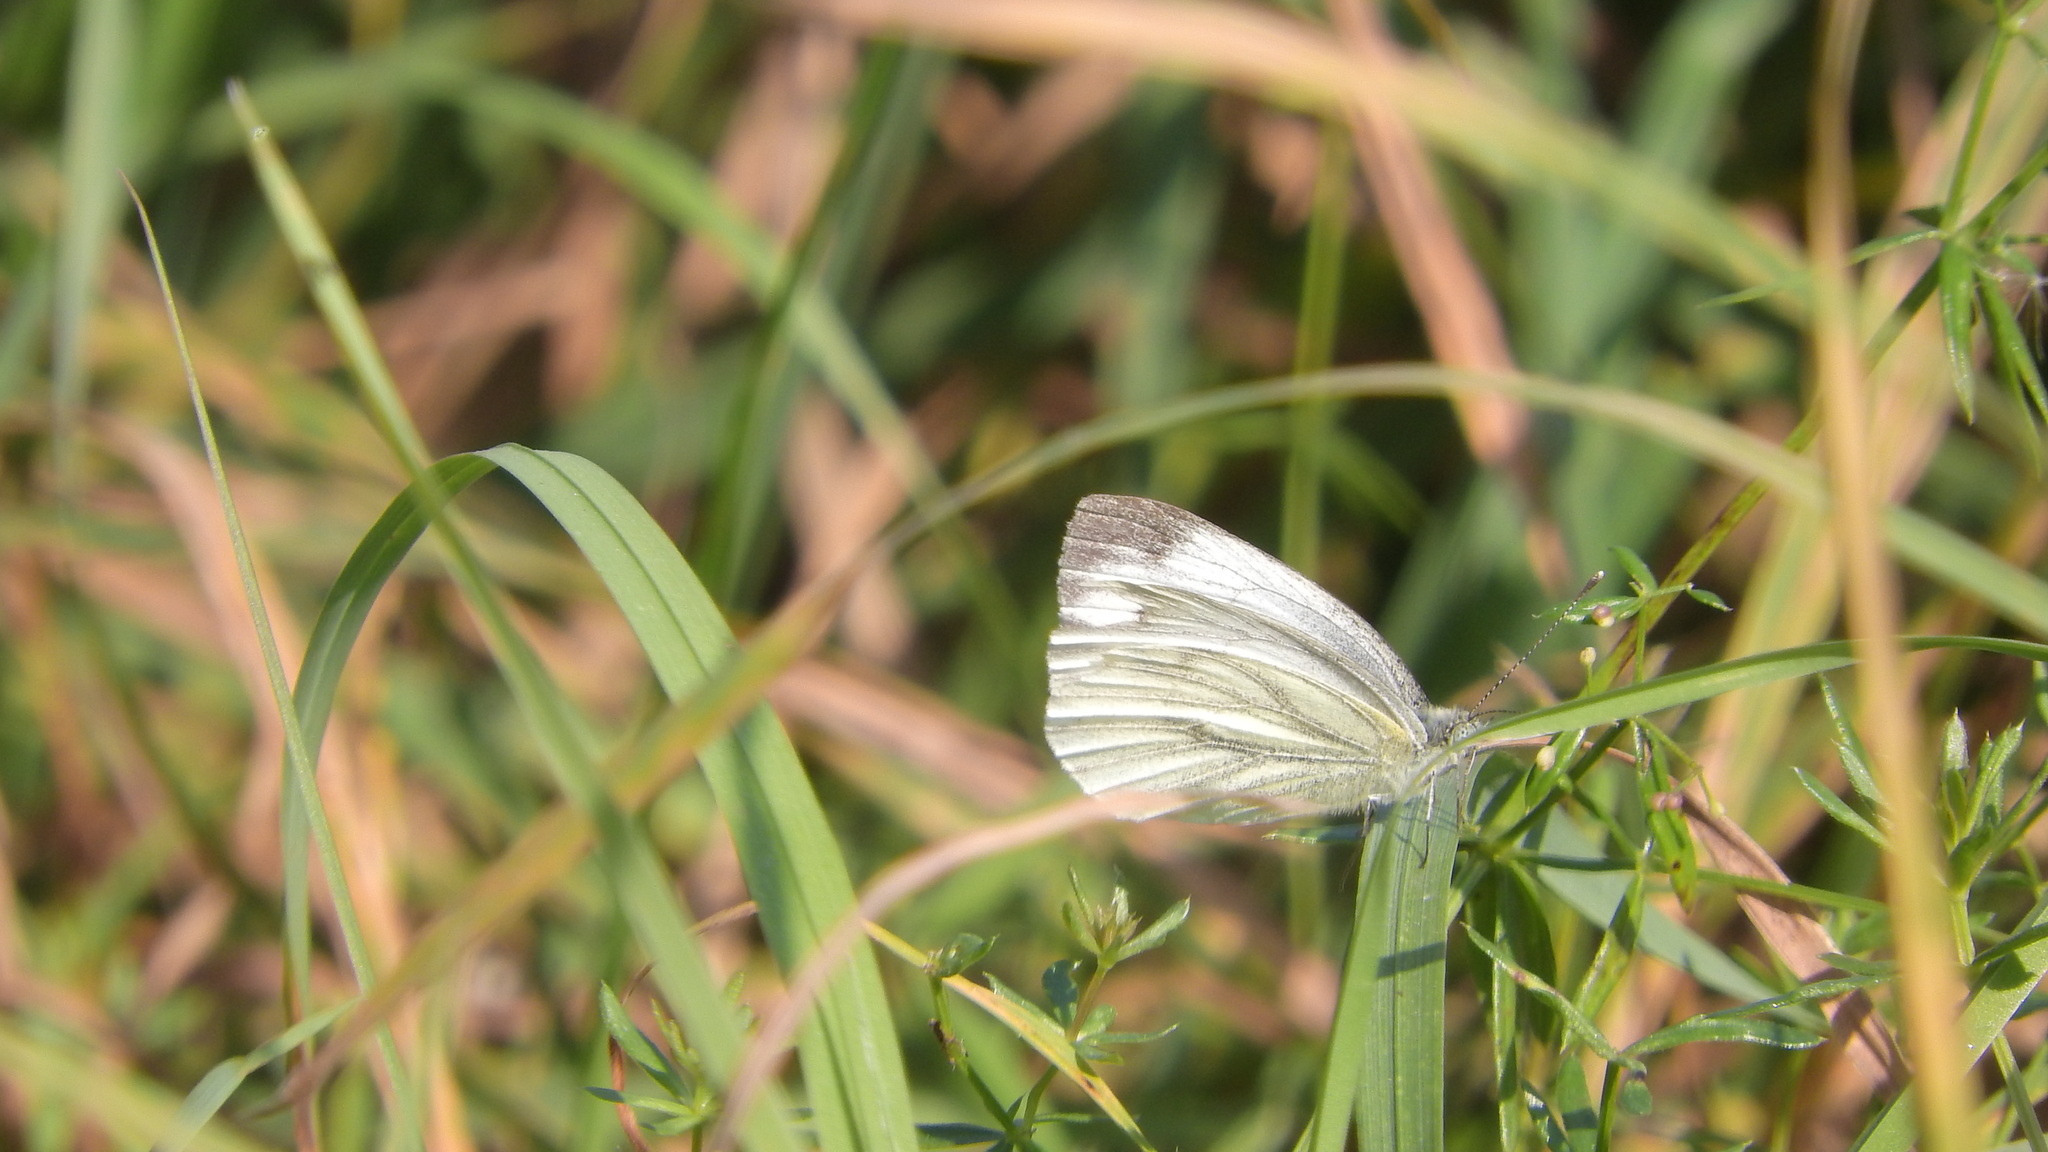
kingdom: Animalia
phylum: Arthropoda
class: Insecta
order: Lepidoptera
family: Pieridae
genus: Pieris
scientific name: Pieris napi
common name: Green-veined white
